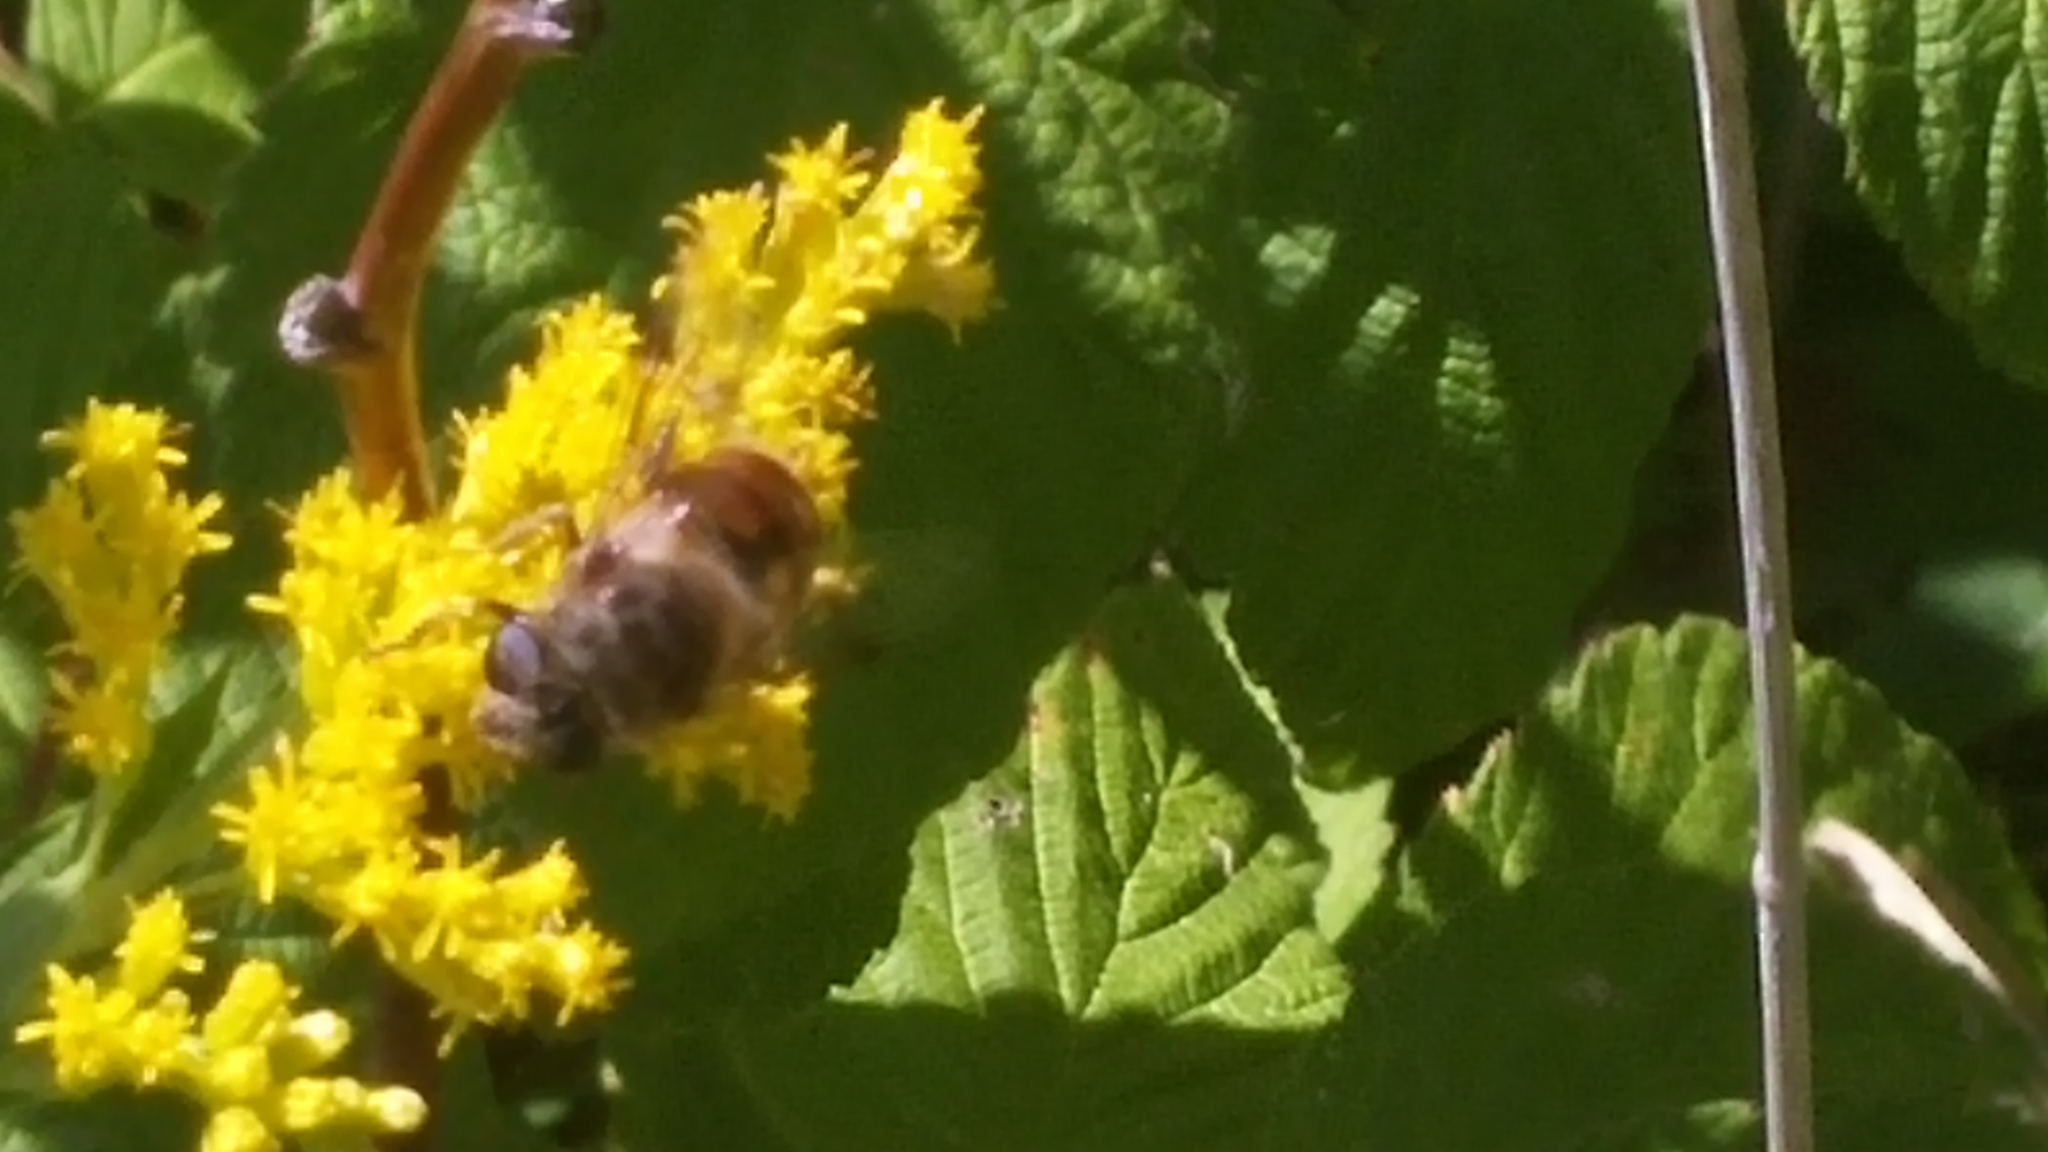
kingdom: Animalia
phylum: Arthropoda
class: Insecta
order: Diptera
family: Syrphidae
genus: Eristalis
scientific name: Eristalis tenax
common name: Drone fly
